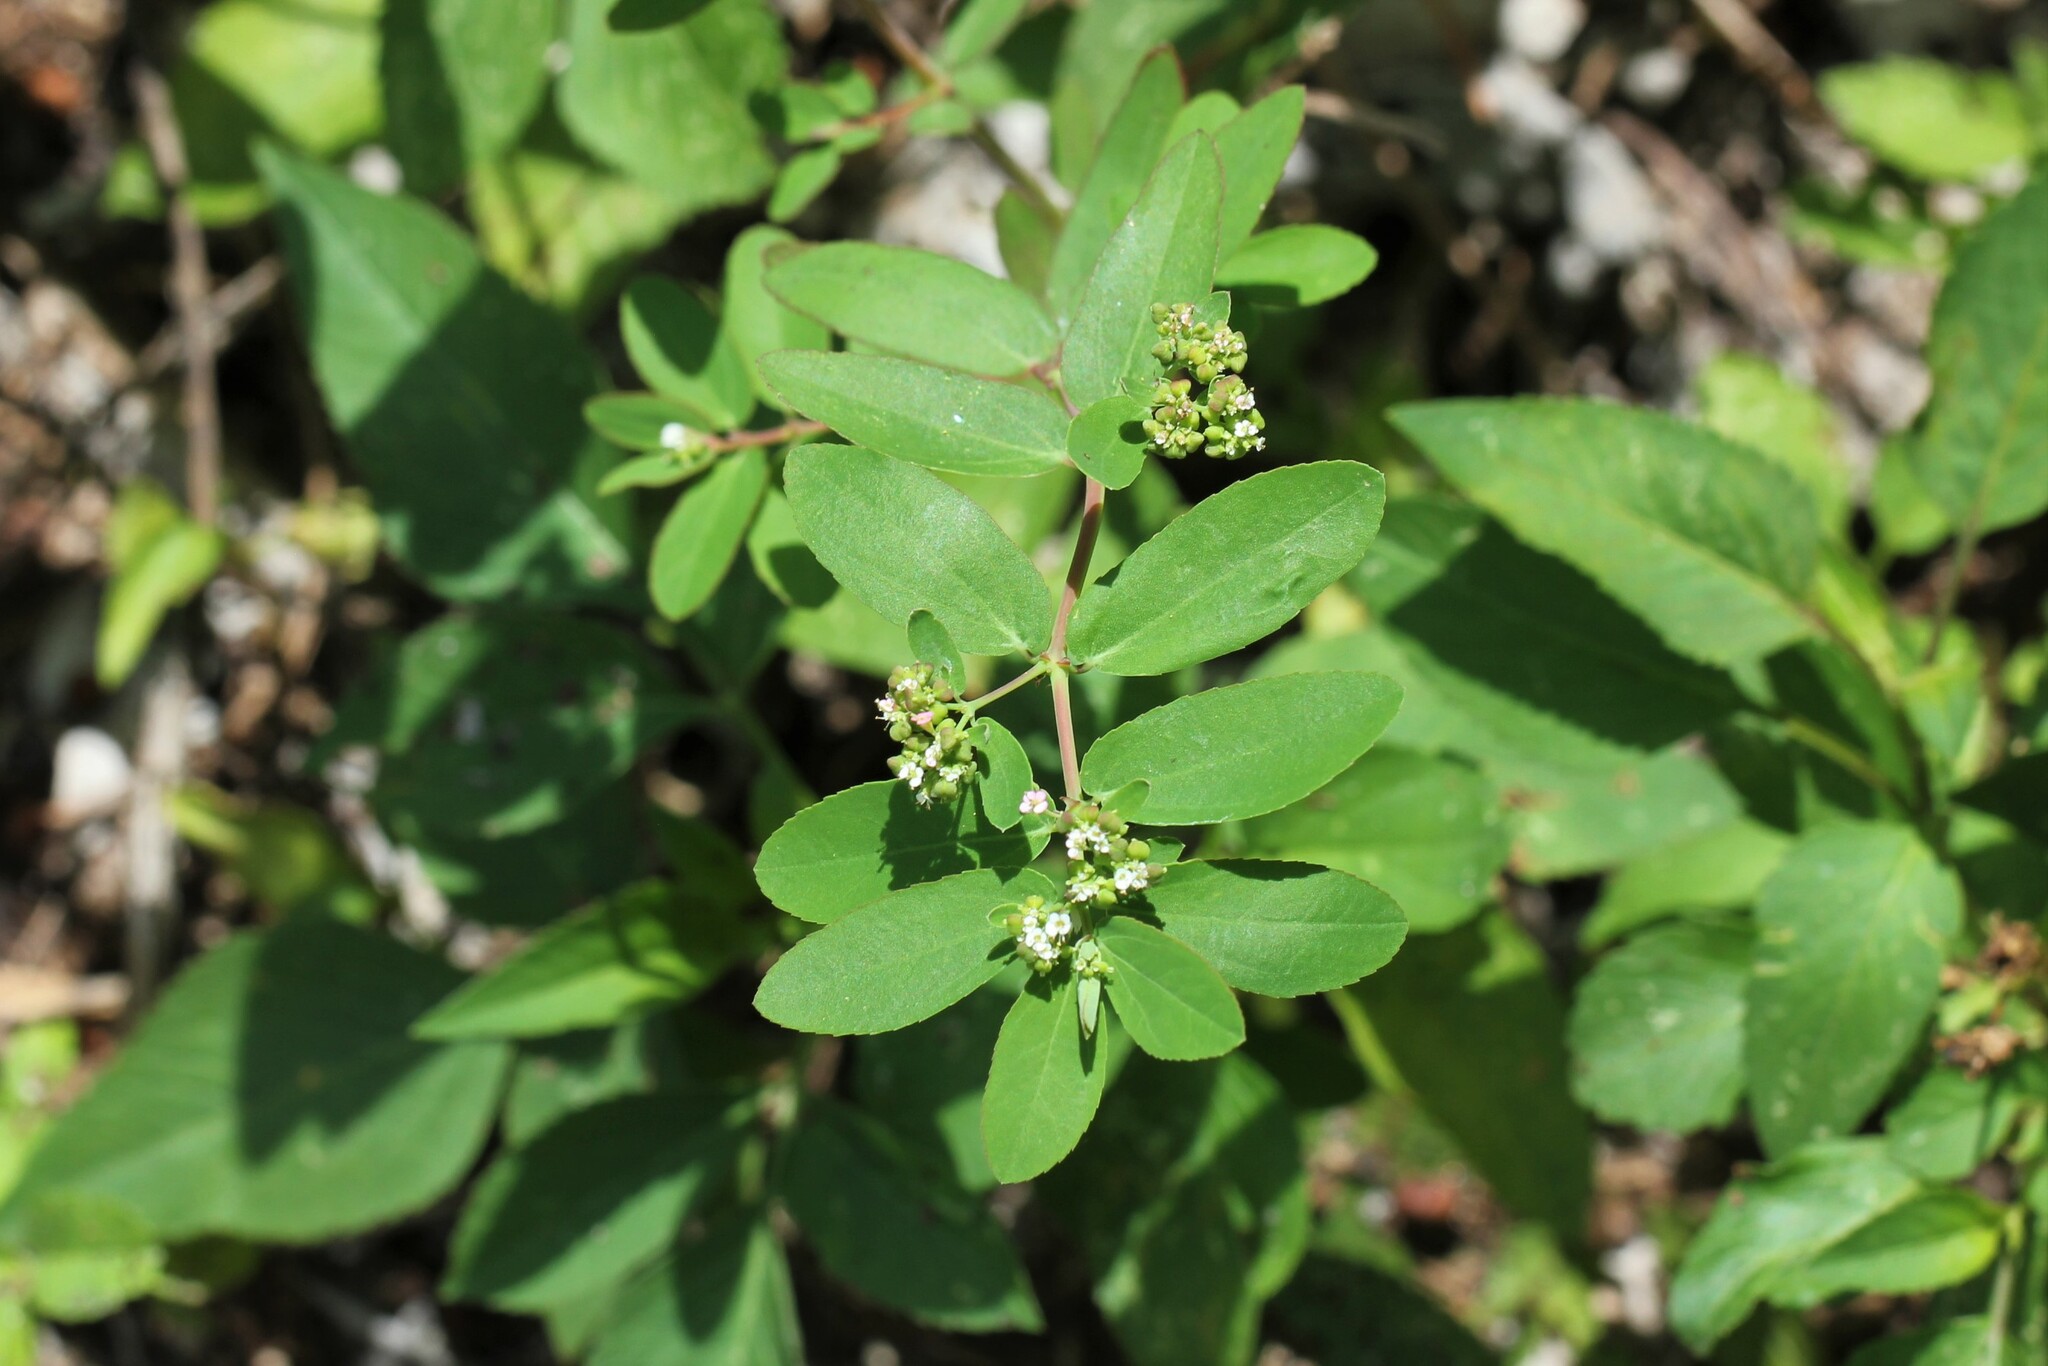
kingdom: Plantae
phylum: Tracheophyta
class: Magnoliopsida
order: Malpighiales
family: Euphorbiaceae
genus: Euphorbia
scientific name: Euphorbia hypericifolia
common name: Graceful sandmat
